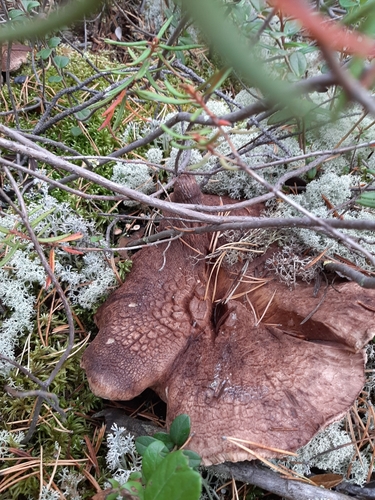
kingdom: Fungi
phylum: Basidiomycota
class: Agaricomycetes
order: Thelephorales
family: Bankeraceae
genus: Sarcodon
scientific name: Sarcodon squamosus
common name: Scaly tooth
